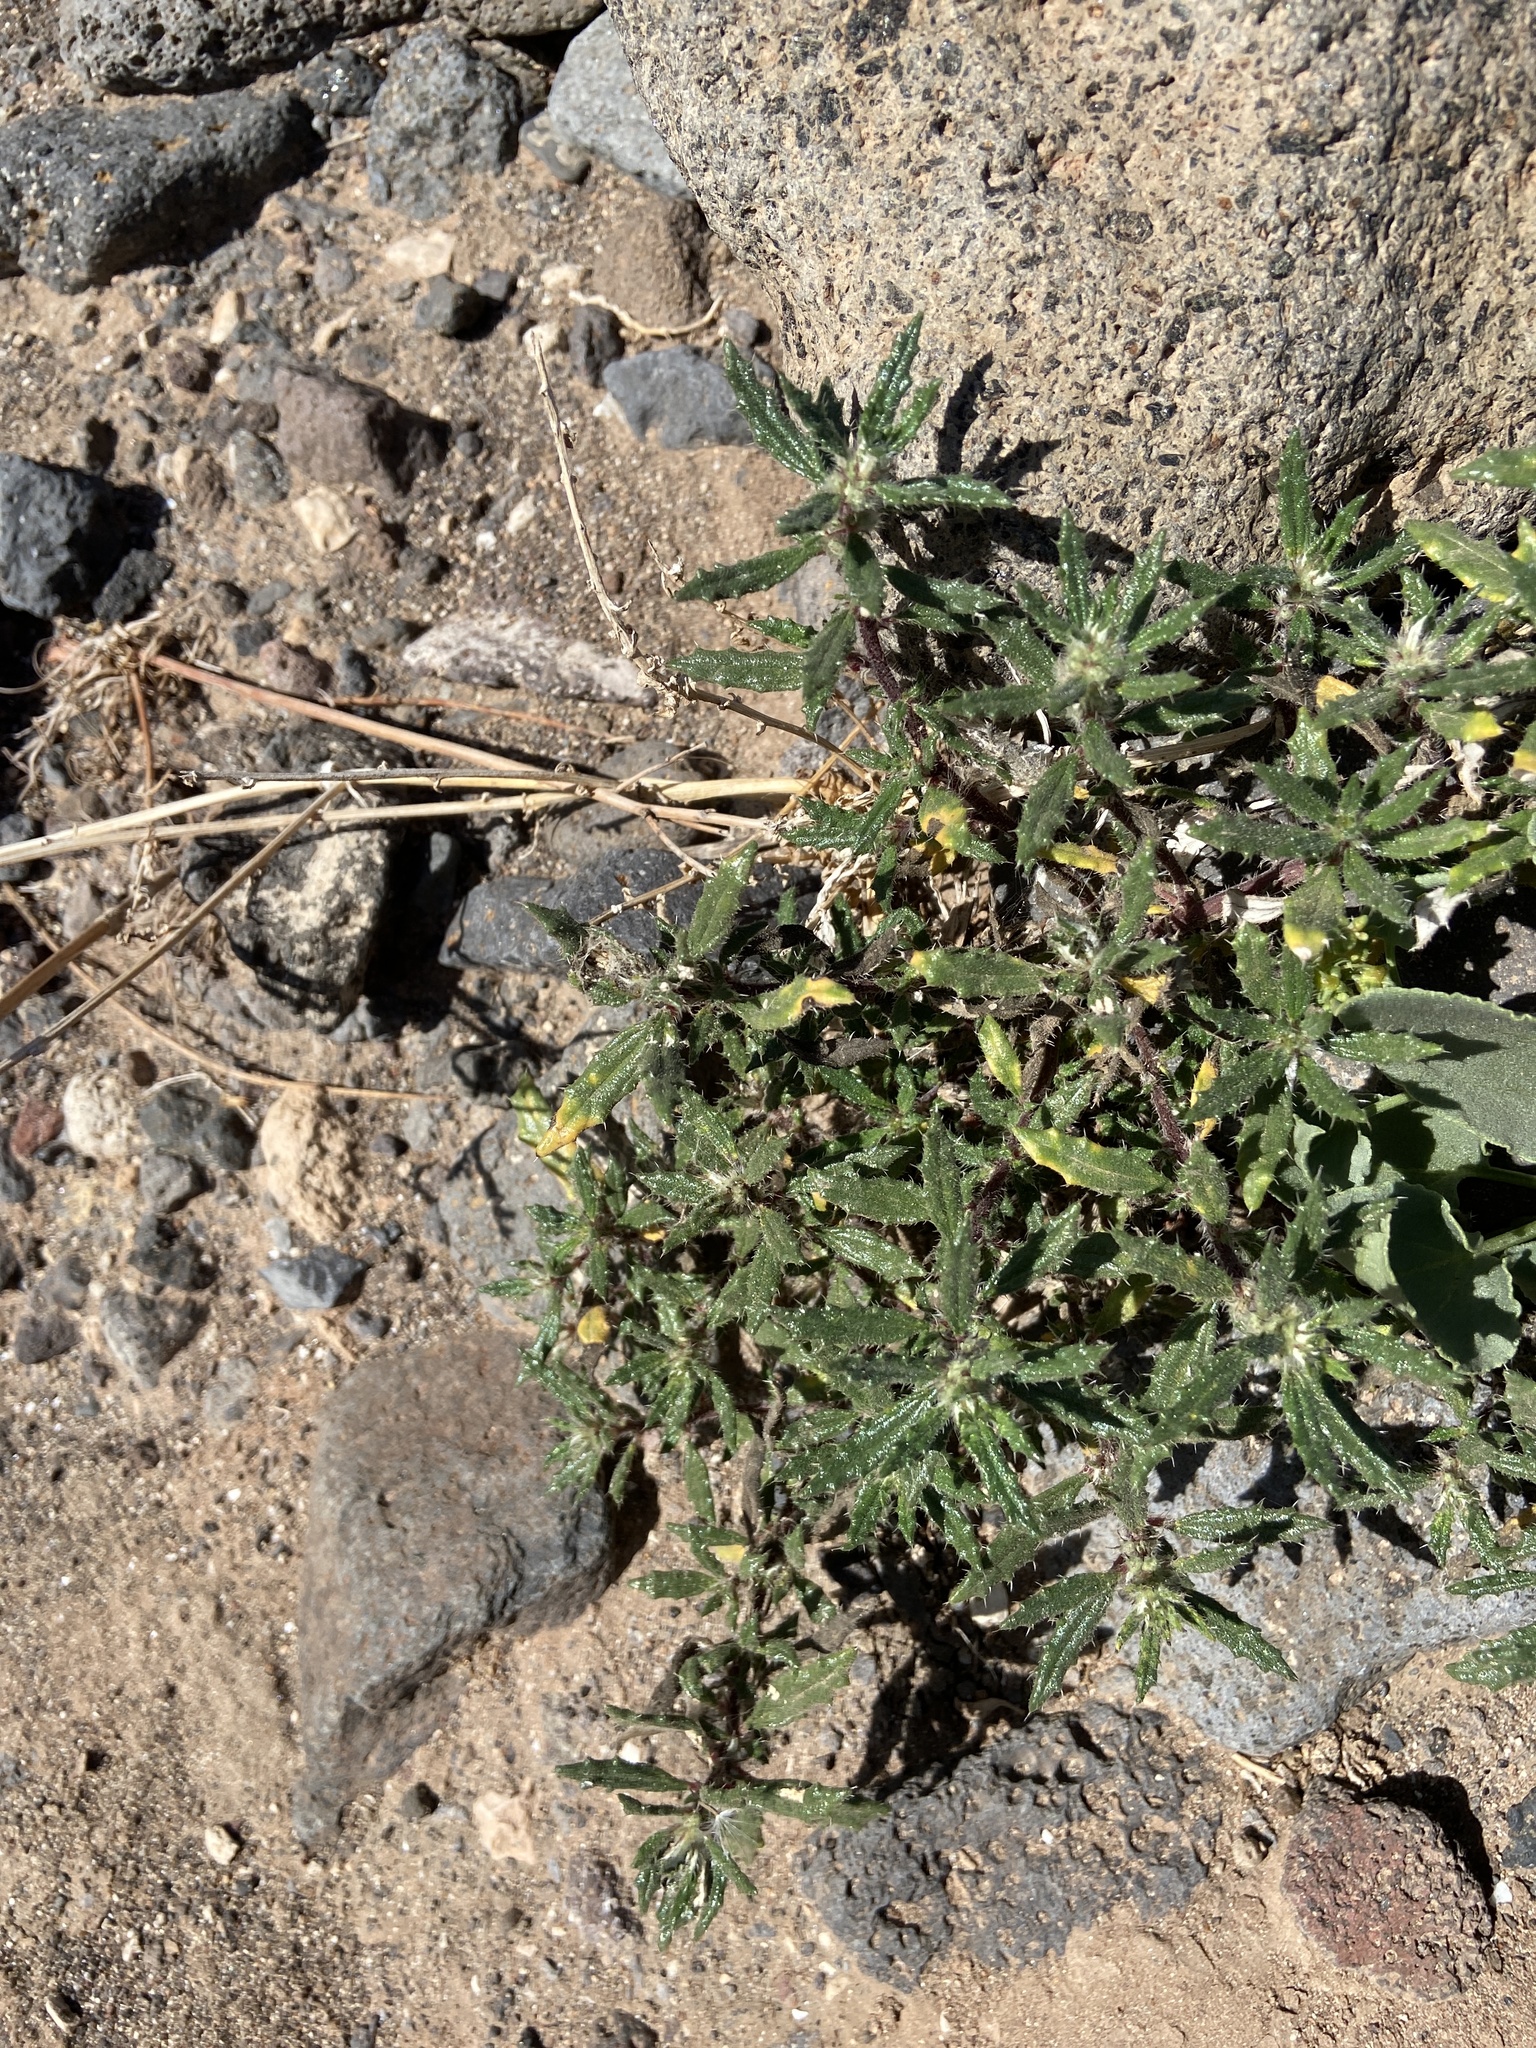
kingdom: Plantae
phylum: Tracheophyta
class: Magnoliopsida
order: Rosales
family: Urticaceae
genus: Forsskaolea
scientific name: Forsskaolea angustifolia
